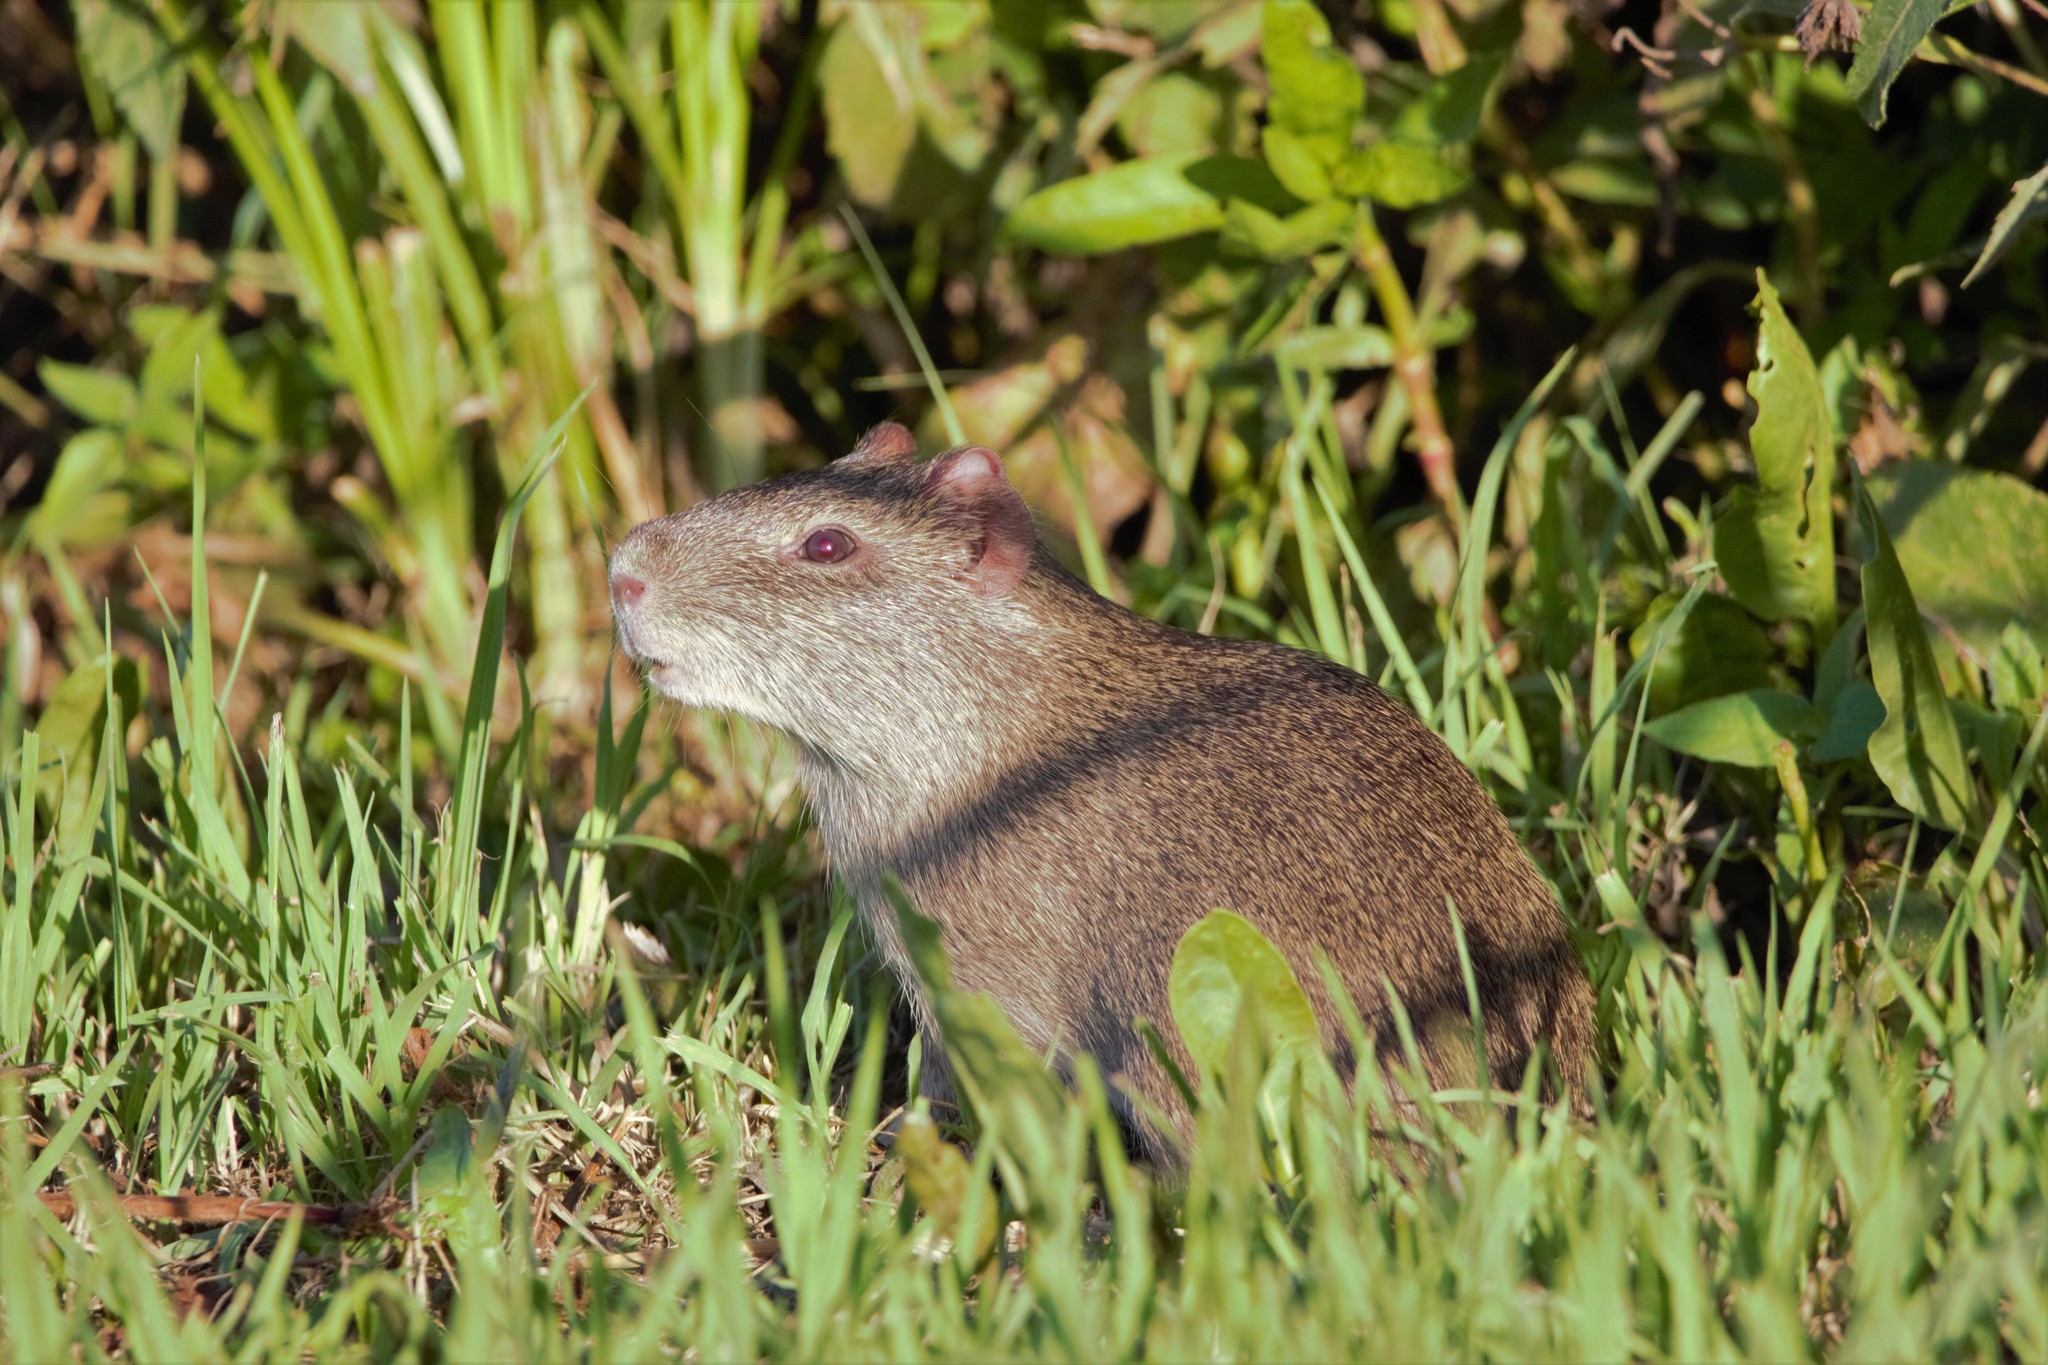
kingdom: Animalia
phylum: Chordata
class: Mammalia
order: Rodentia
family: Caviidae
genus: Cavia
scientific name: Cavia aperea
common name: Brazilian guinea pig
